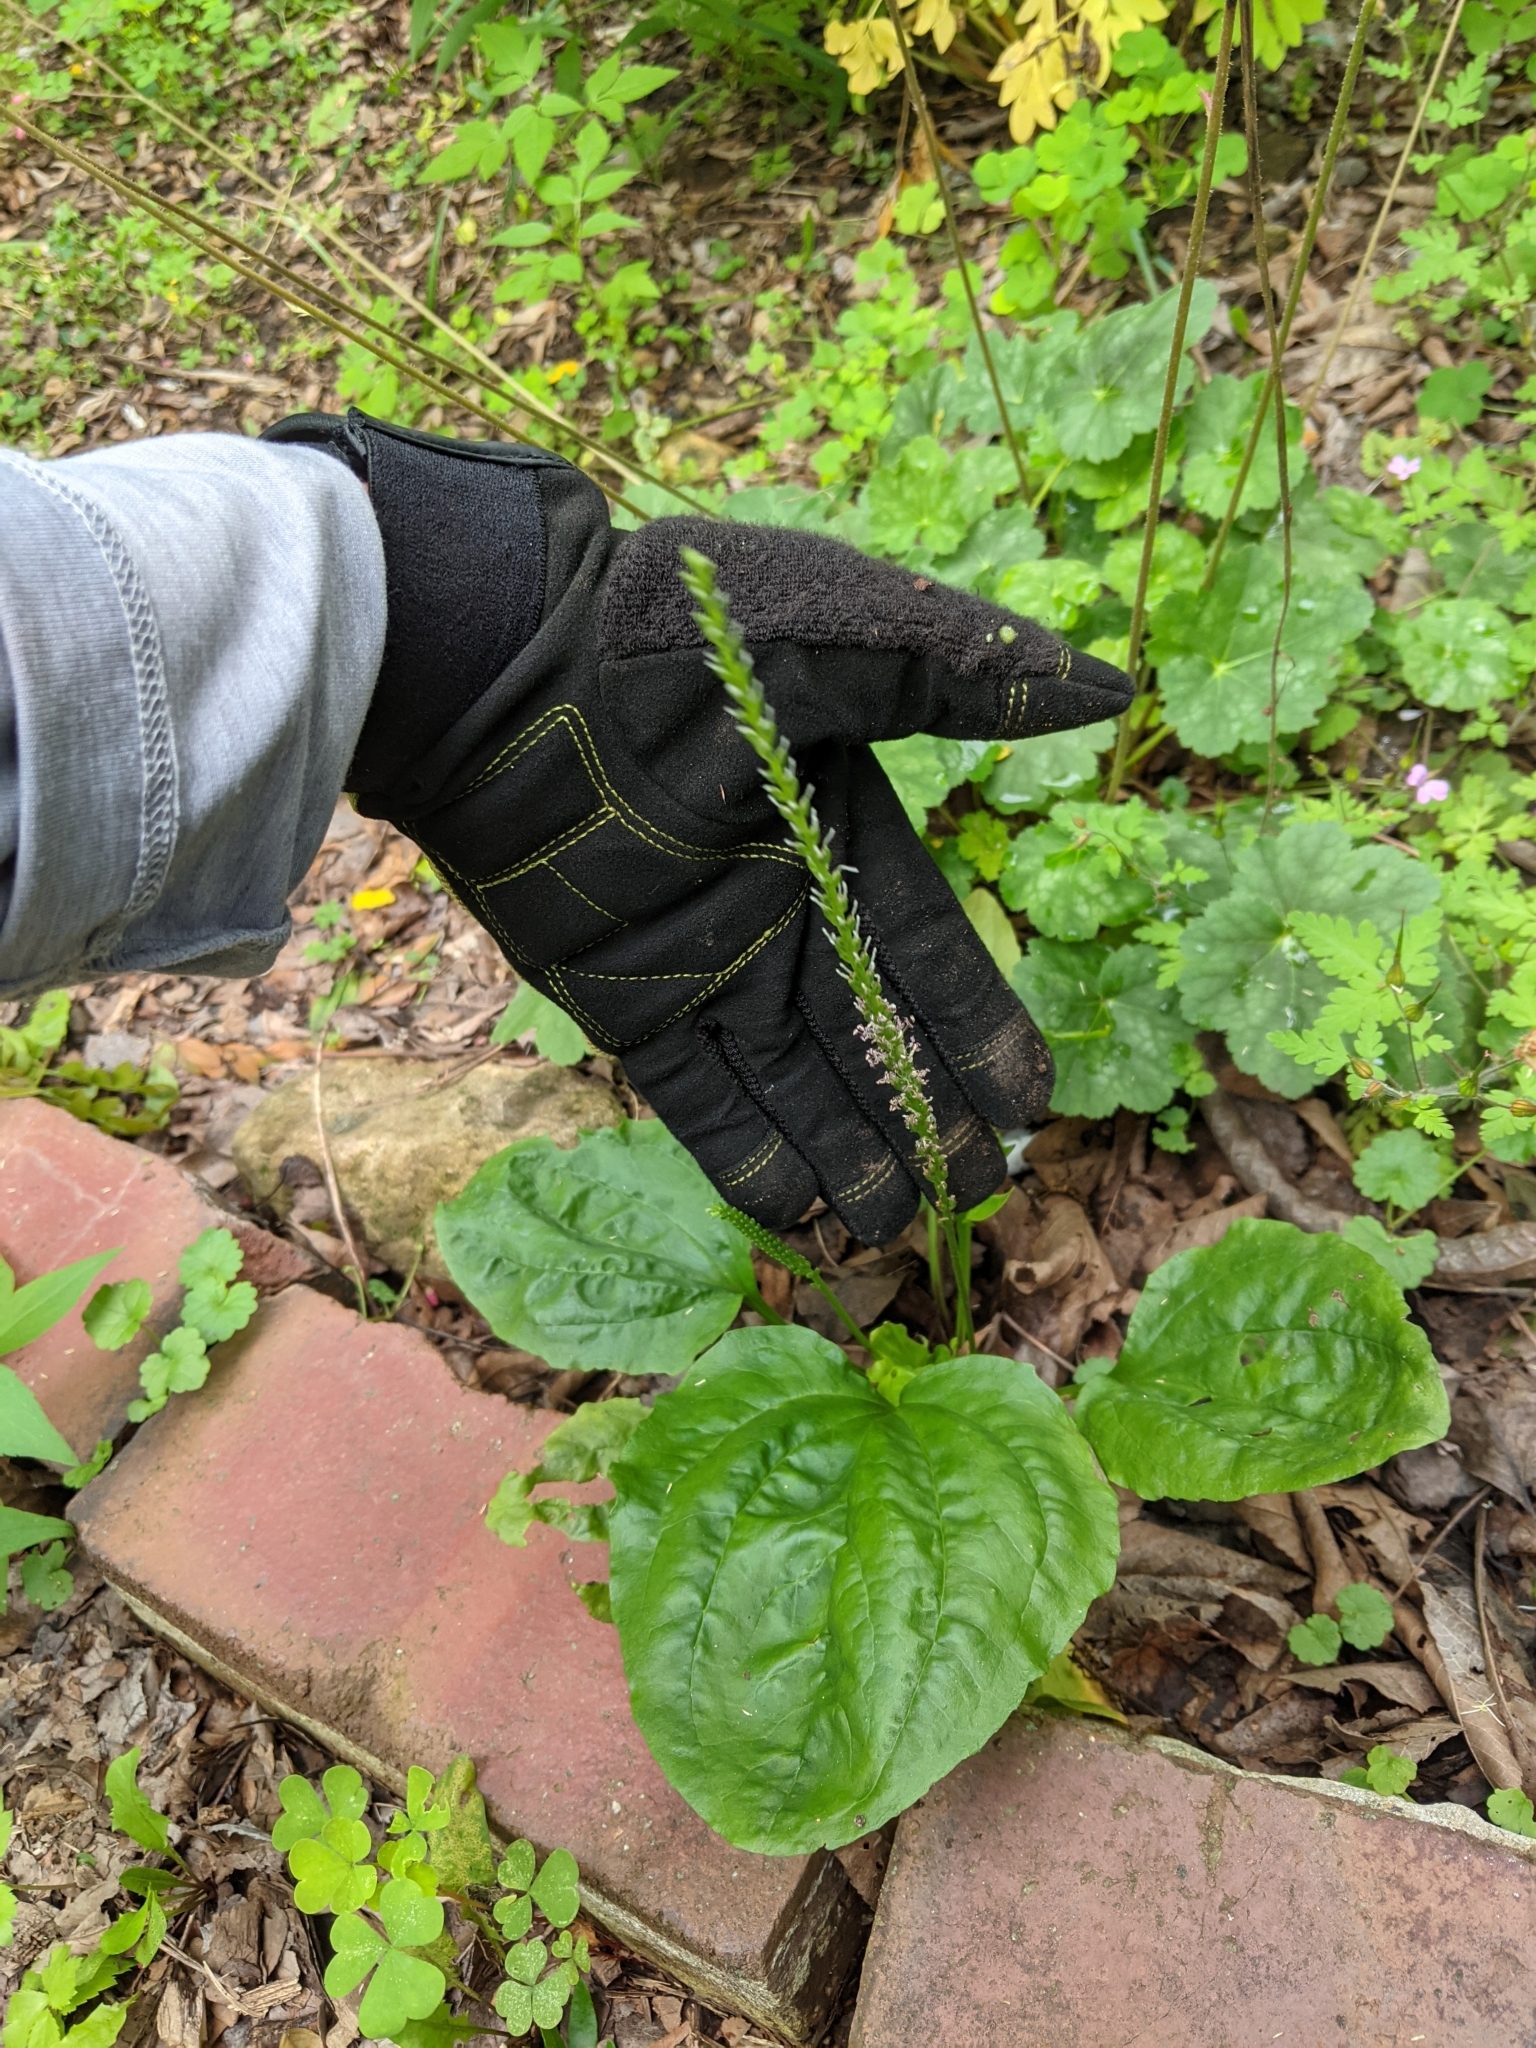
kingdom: Plantae
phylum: Tracheophyta
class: Magnoliopsida
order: Lamiales
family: Plantaginaceae
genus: Plantago
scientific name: Plantago major
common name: Common plantain
